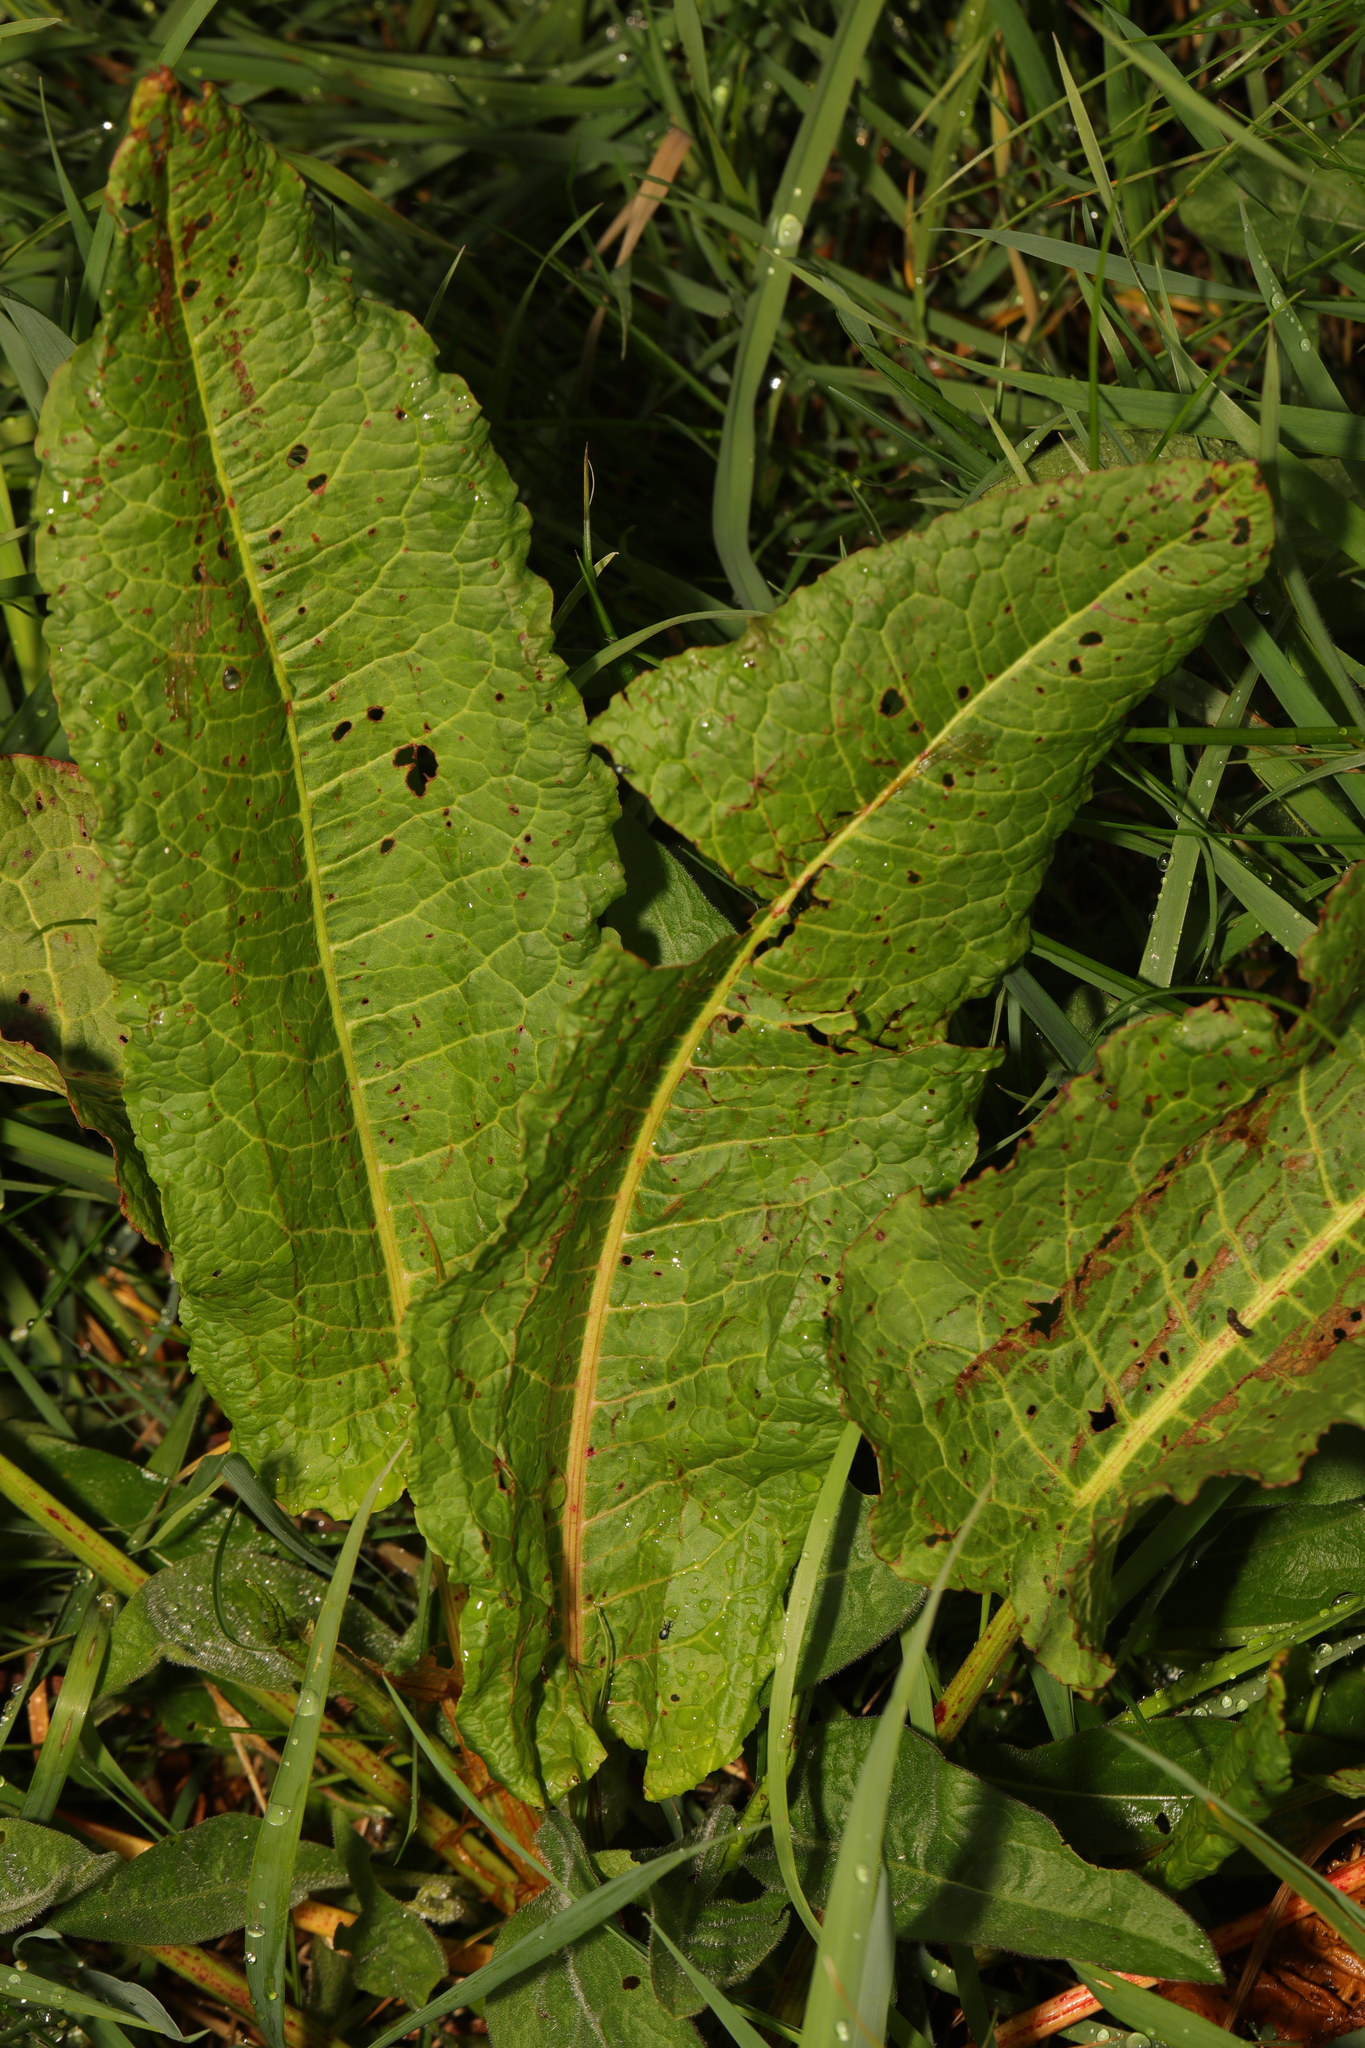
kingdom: Plantae
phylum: Tracheophyta
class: Magnoliopsida
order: Caryophyllales
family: Polygonaceae
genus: Rumex
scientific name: Rumex obtusifolius
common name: Bitter dock
